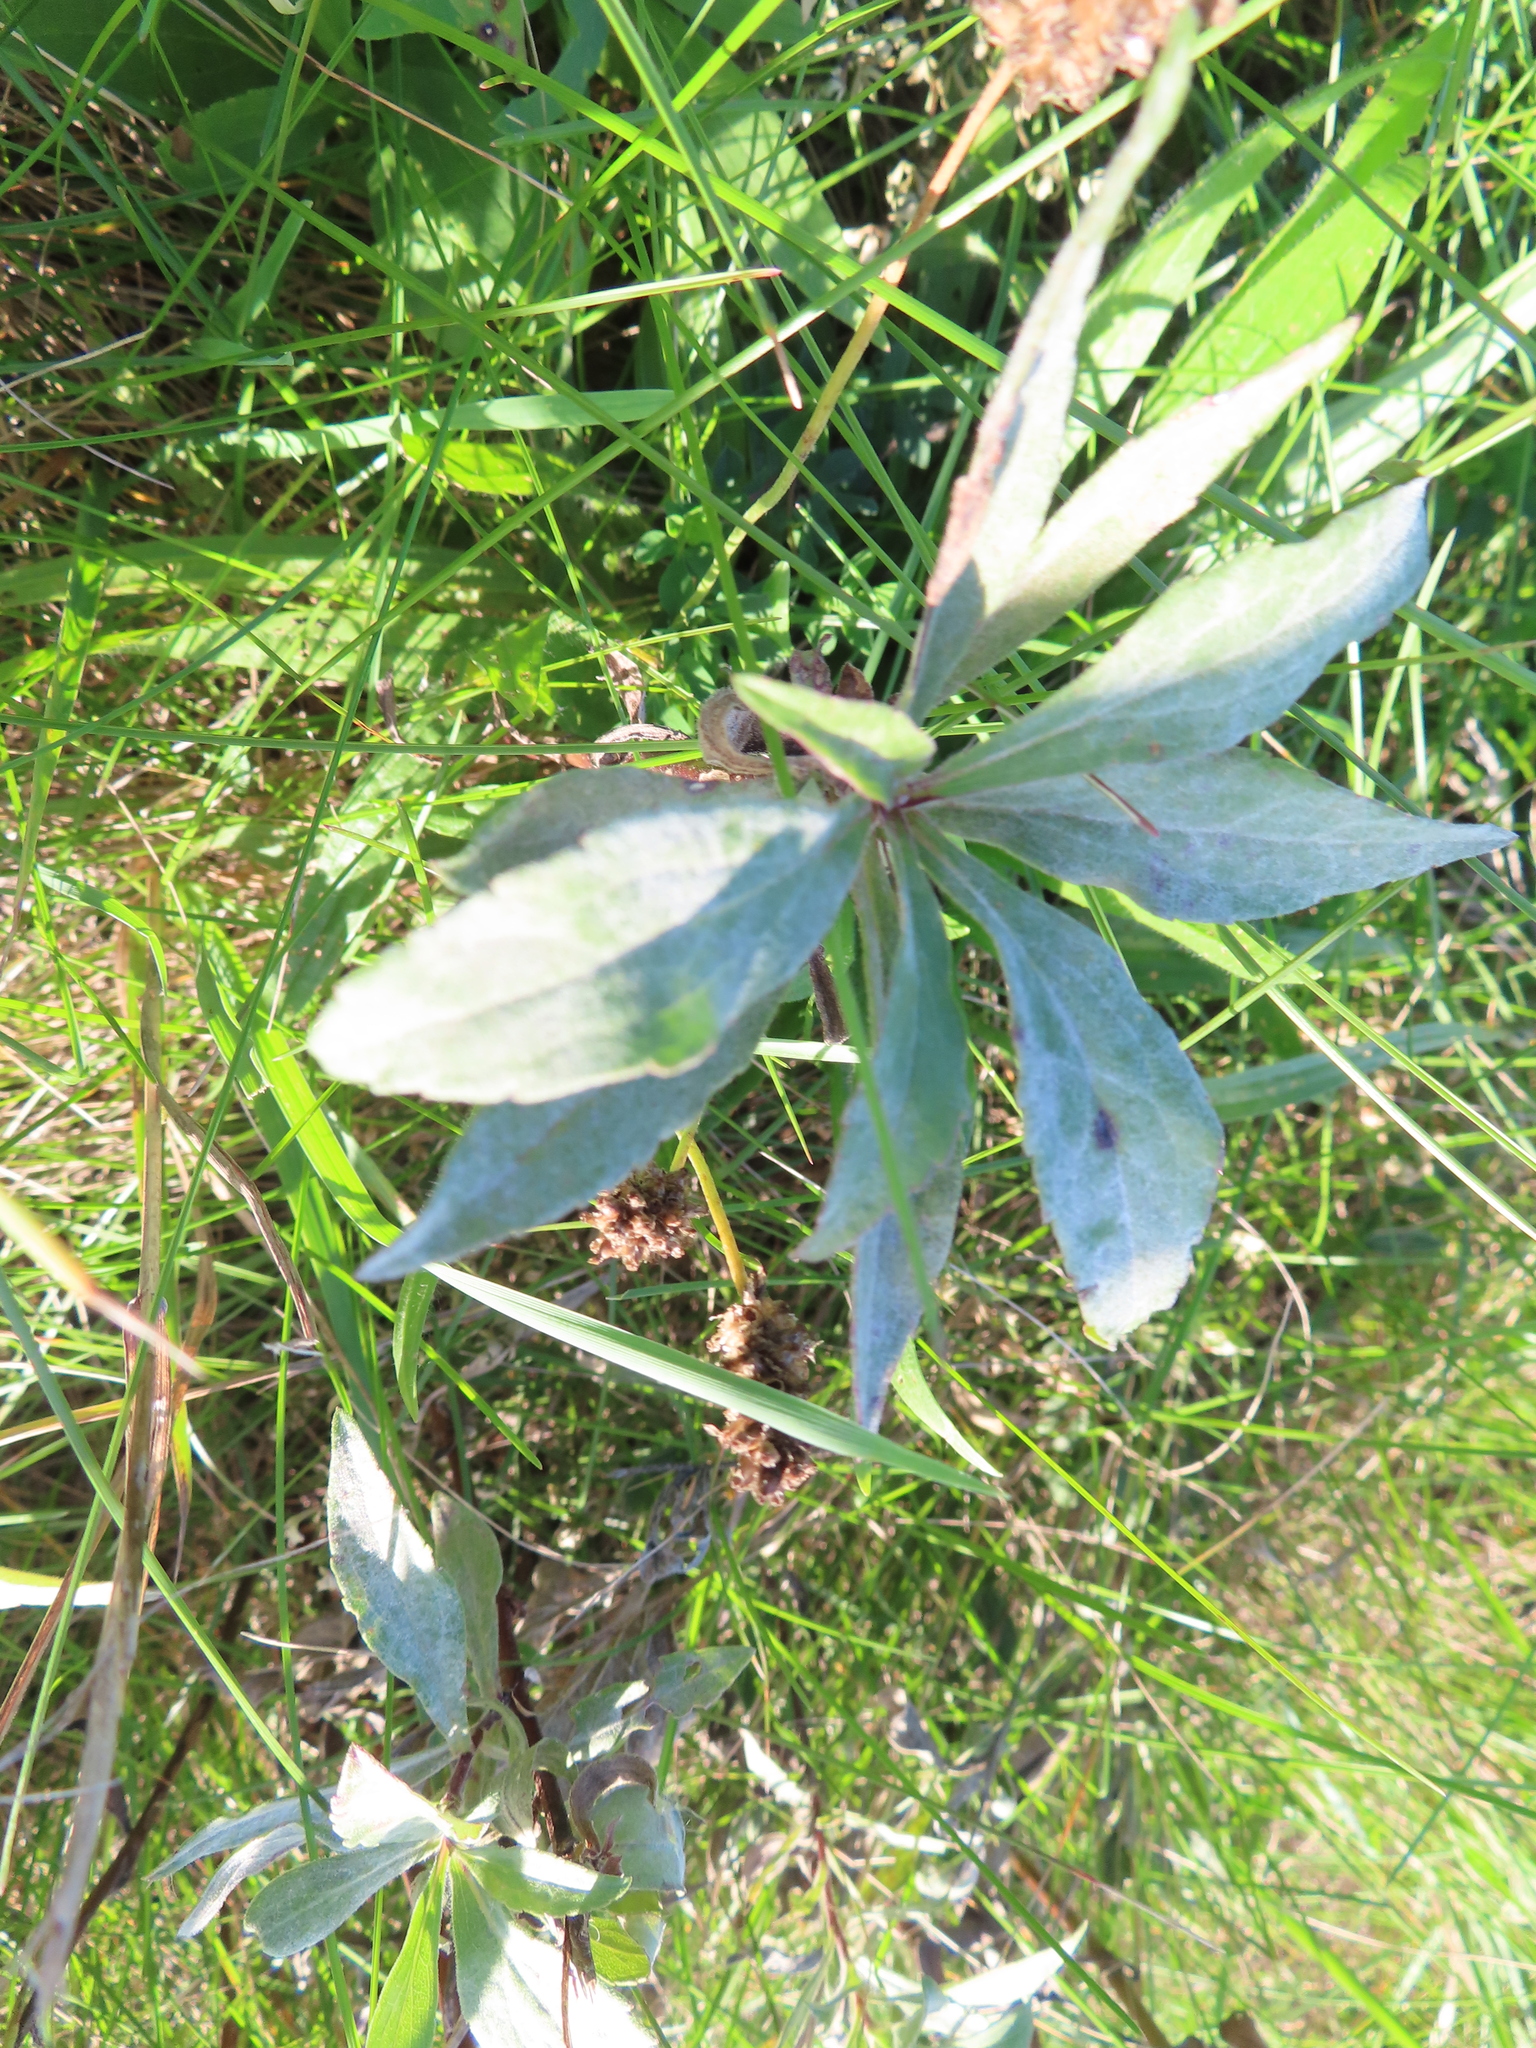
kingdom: Fungi
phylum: Ascomycota
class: Leotiomycetes
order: Helotiales
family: Erysiphaceae
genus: Golovinomyces
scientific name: Golovinomyces asterum
